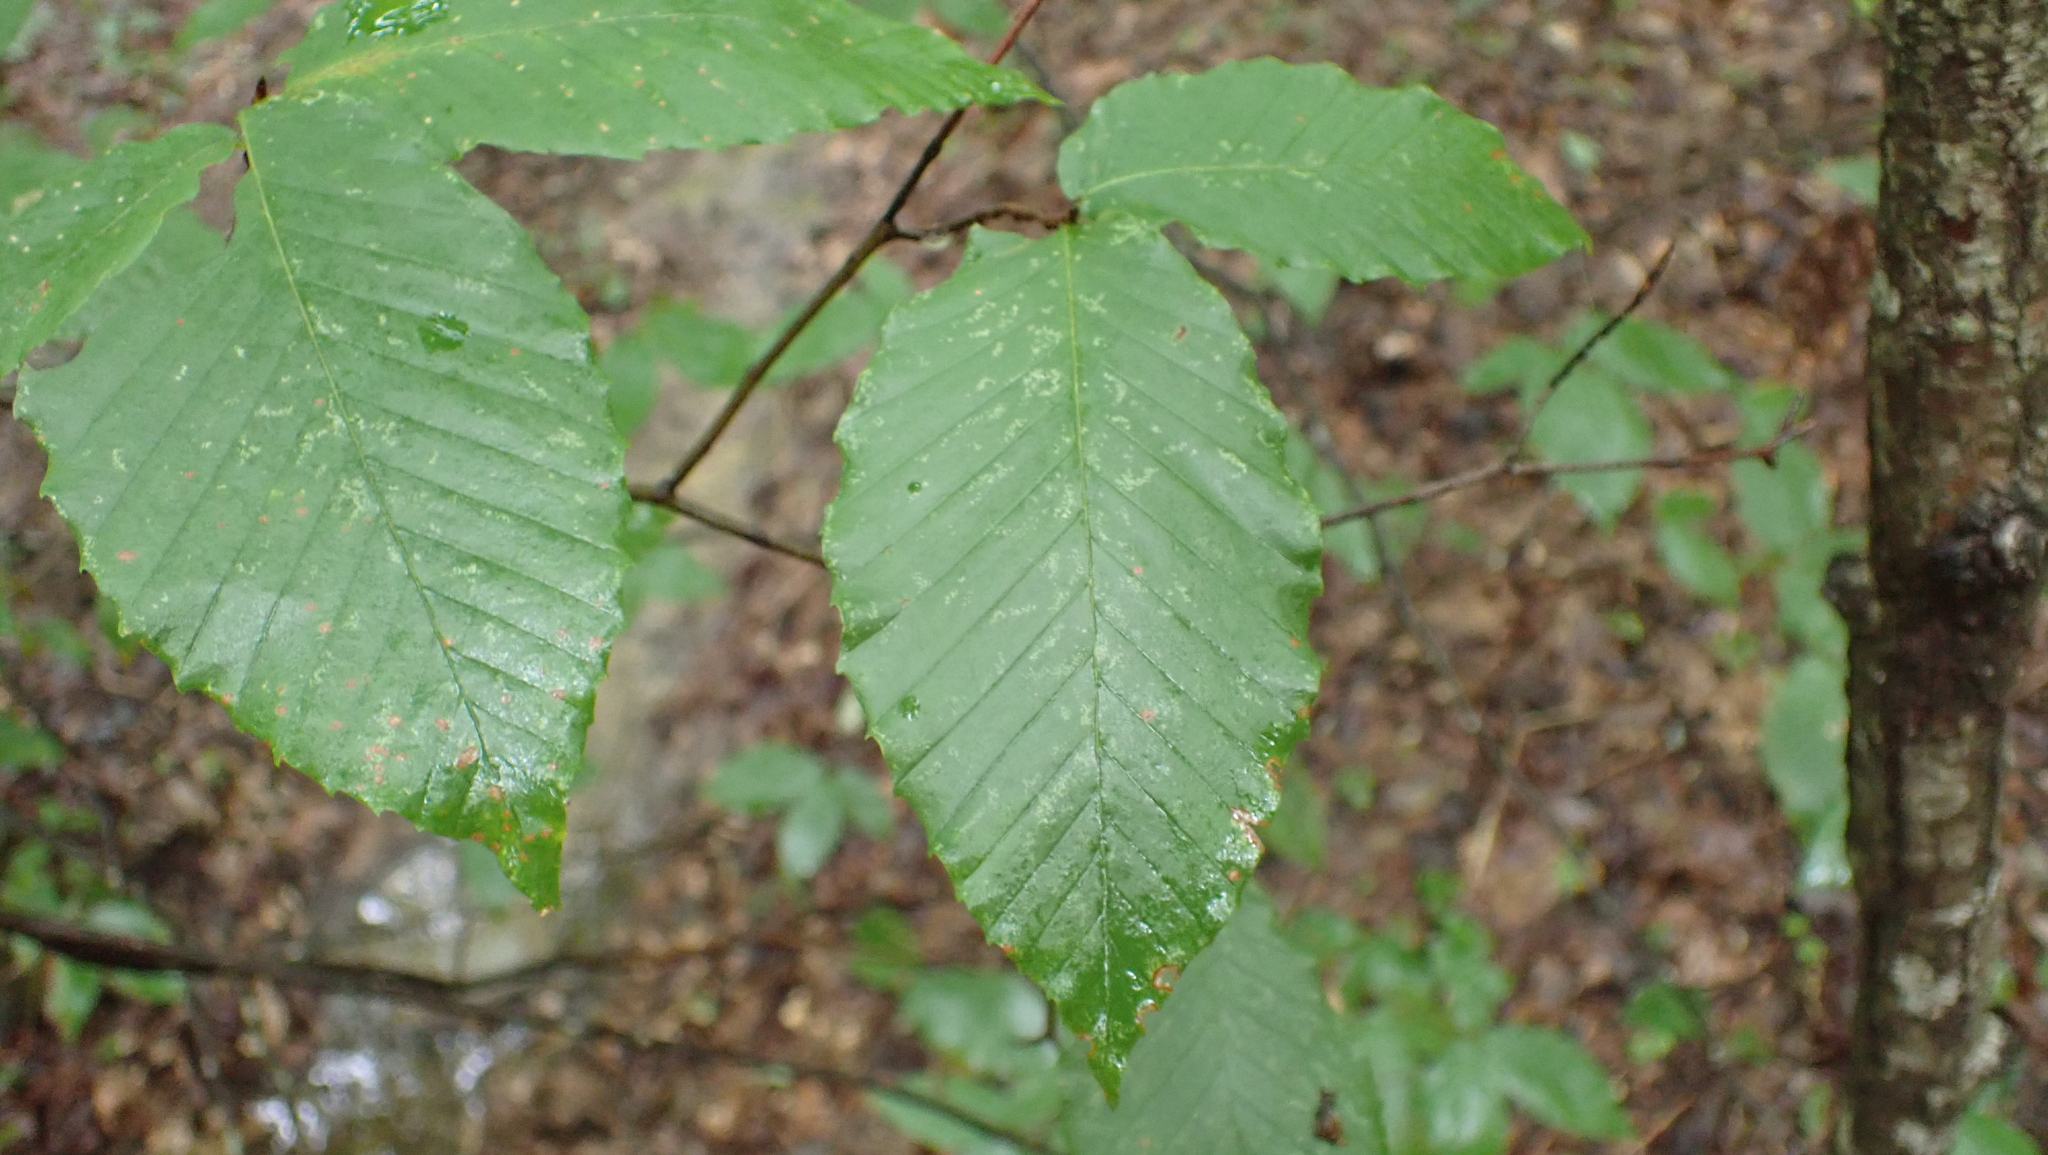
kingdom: Plantae
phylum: Tracheophyta
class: Magnoliopsida
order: Fagales
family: Fagaceae
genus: Fagus
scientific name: Fagus grandifolia
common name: American beech
